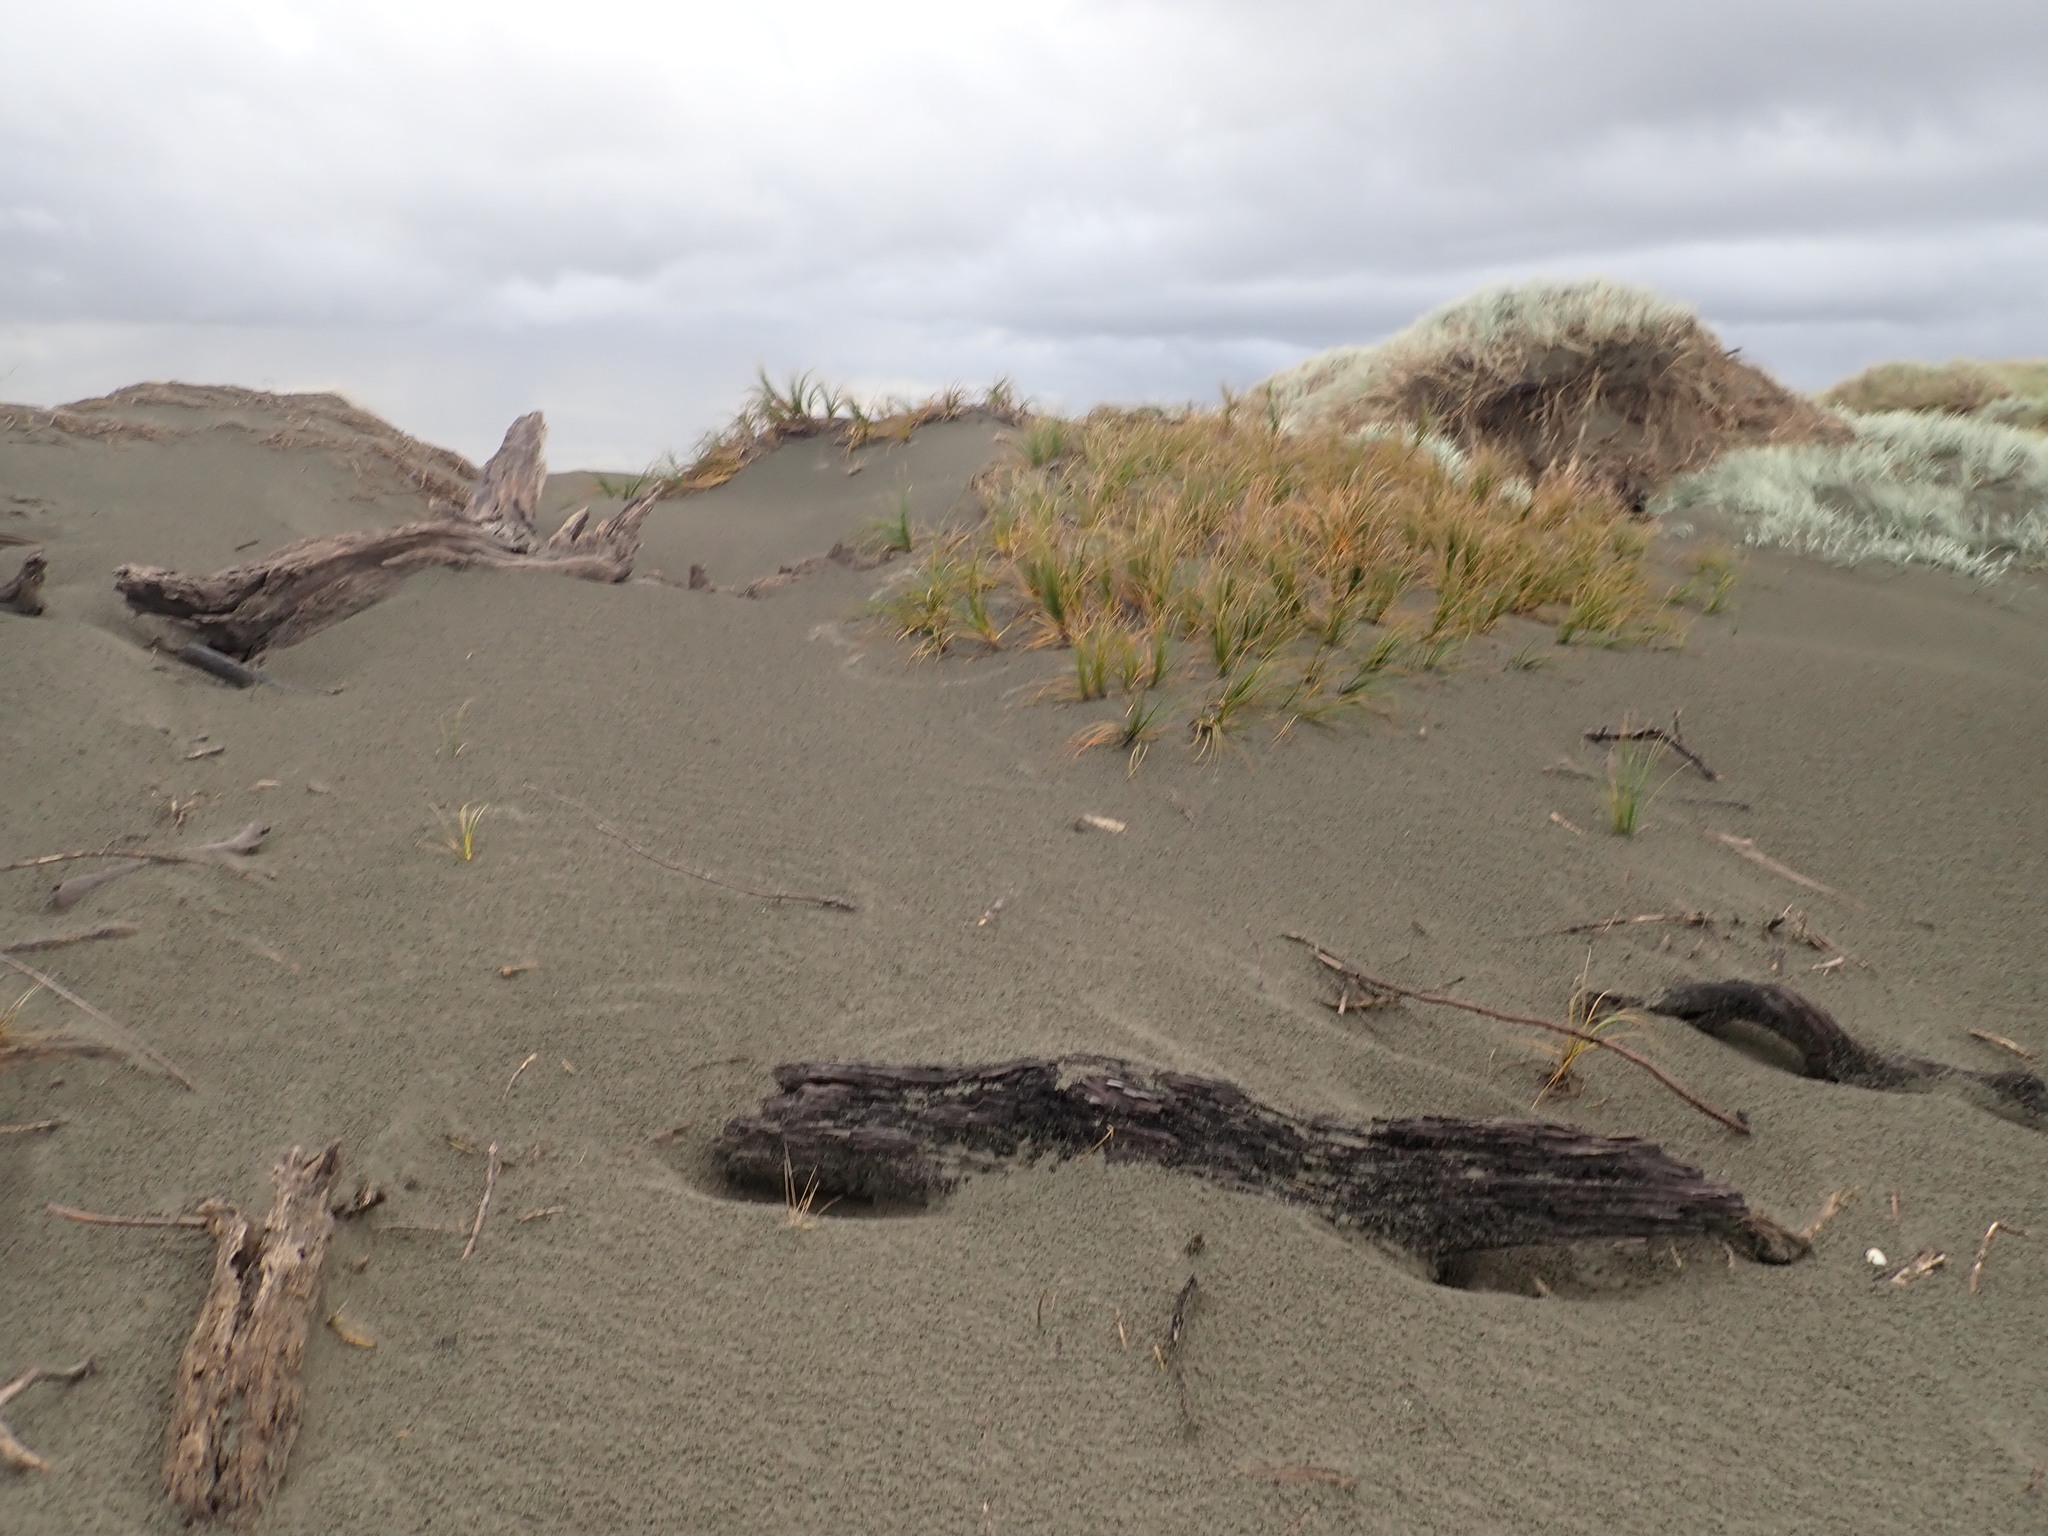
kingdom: Plantae
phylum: Tracheophyta
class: Liliopsida
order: Poales
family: Cyperaceae
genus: Ficinia
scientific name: Ficinia spiralis
